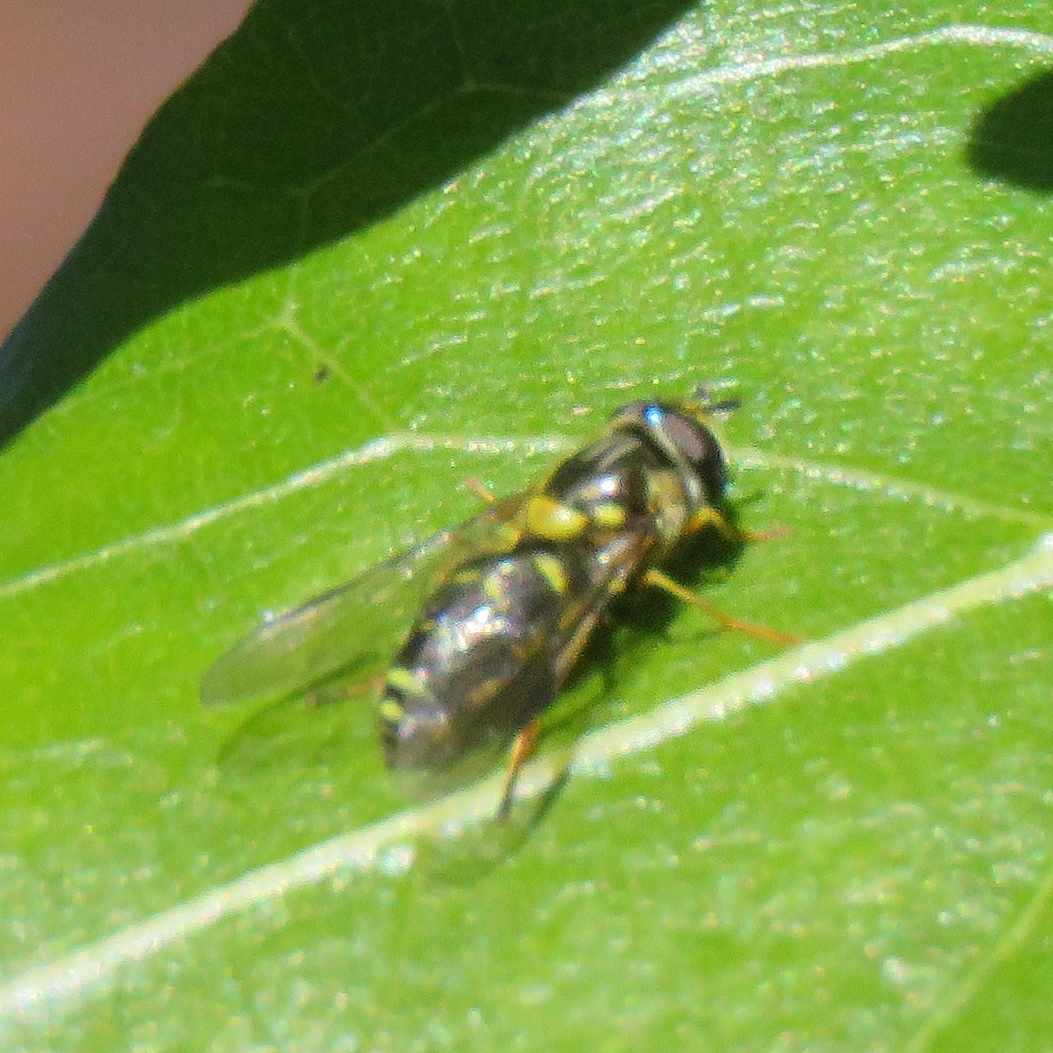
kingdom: Animalia
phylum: Arthropoda
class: Insecta
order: Diptera
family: Syrphidae
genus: Dasysyrphus
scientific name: Dasysyrphus albostriatus
